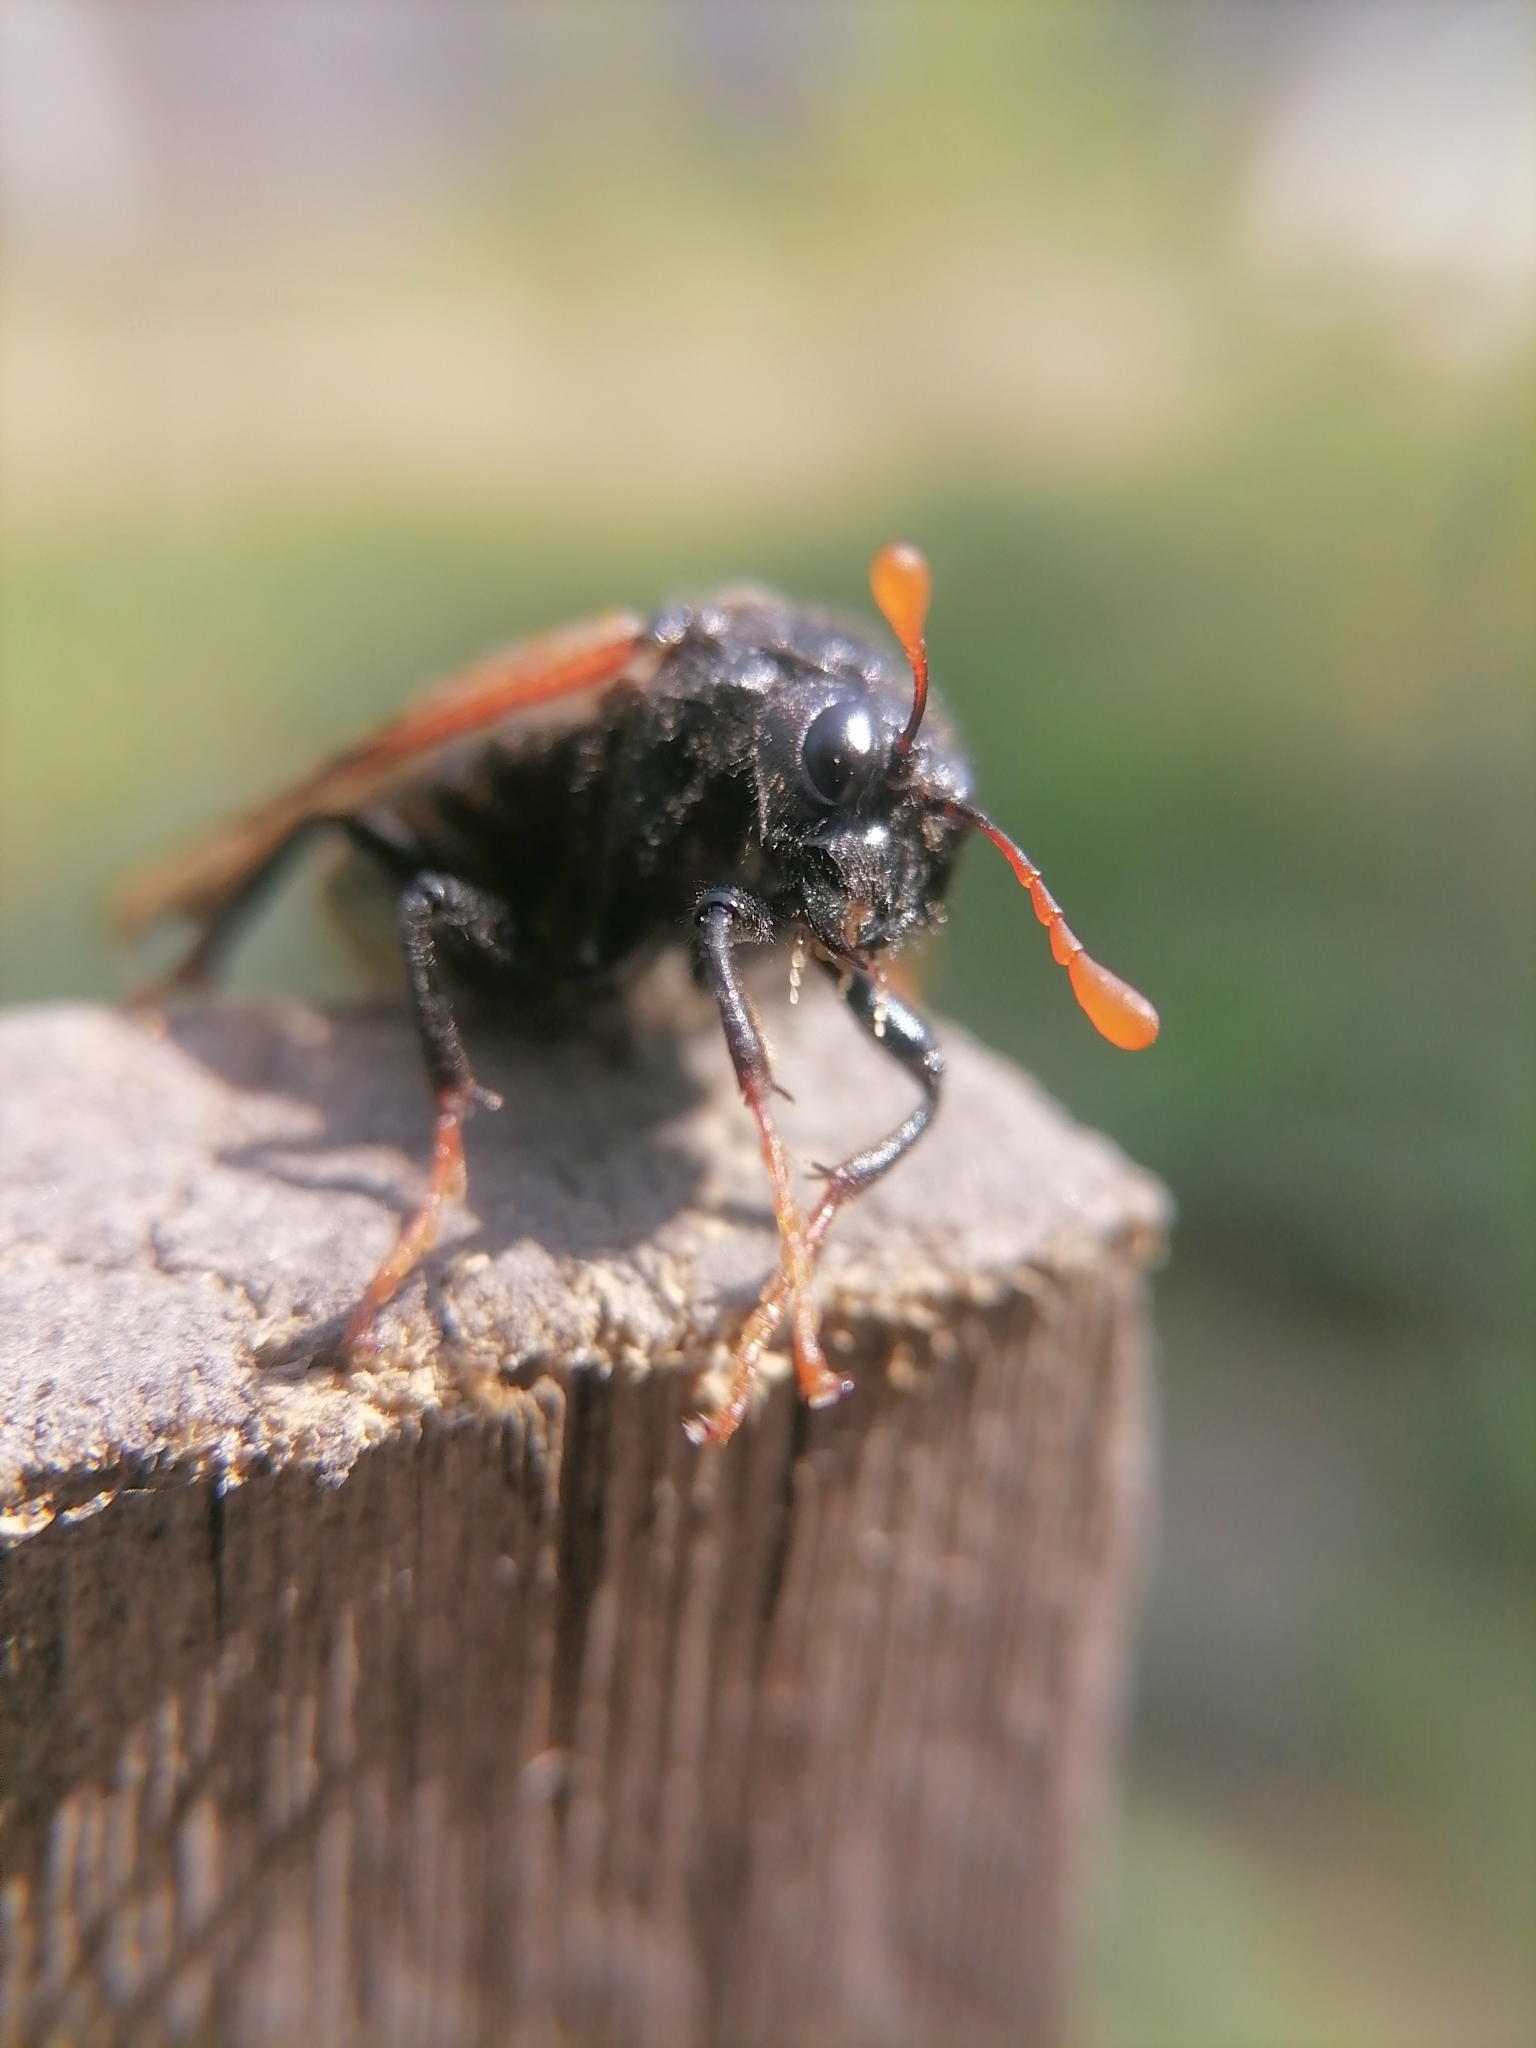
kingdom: Animalia
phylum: Arthropoda
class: Insecta
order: Hymenoptera
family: Cimbicidae
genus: Cimbex
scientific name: Cimbex femoratus
